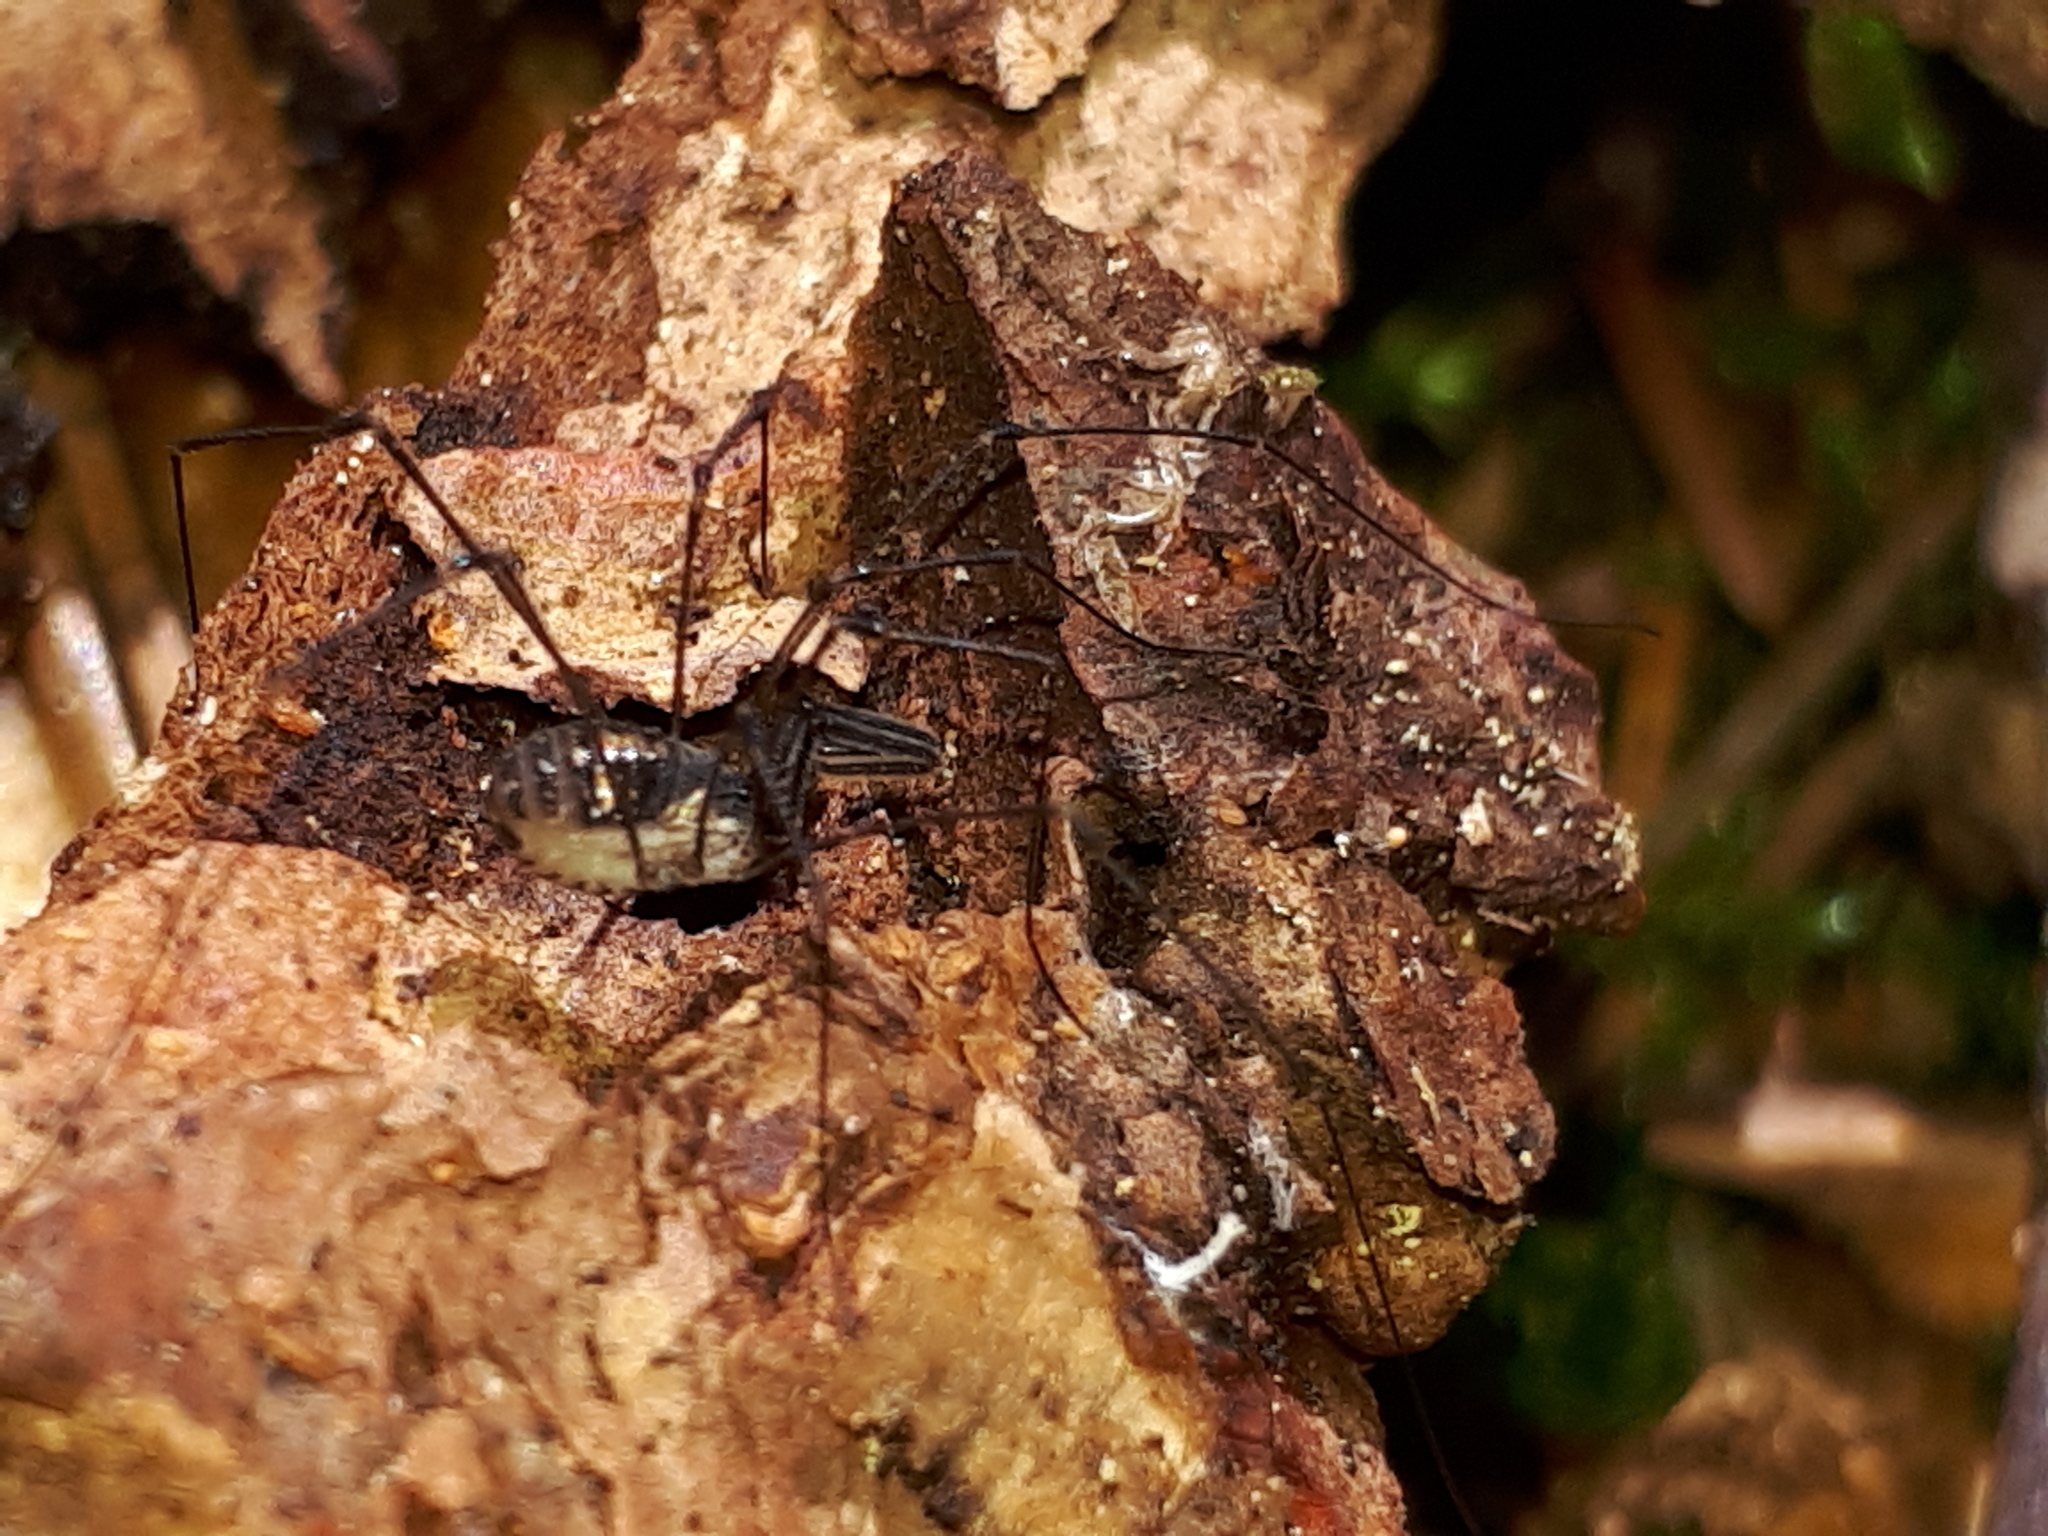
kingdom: Animalia
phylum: Arthropoda
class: Arachnida
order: Opiliones
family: Nemastomatidae
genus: Mitostoma
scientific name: Mitostoma chrysomelas
